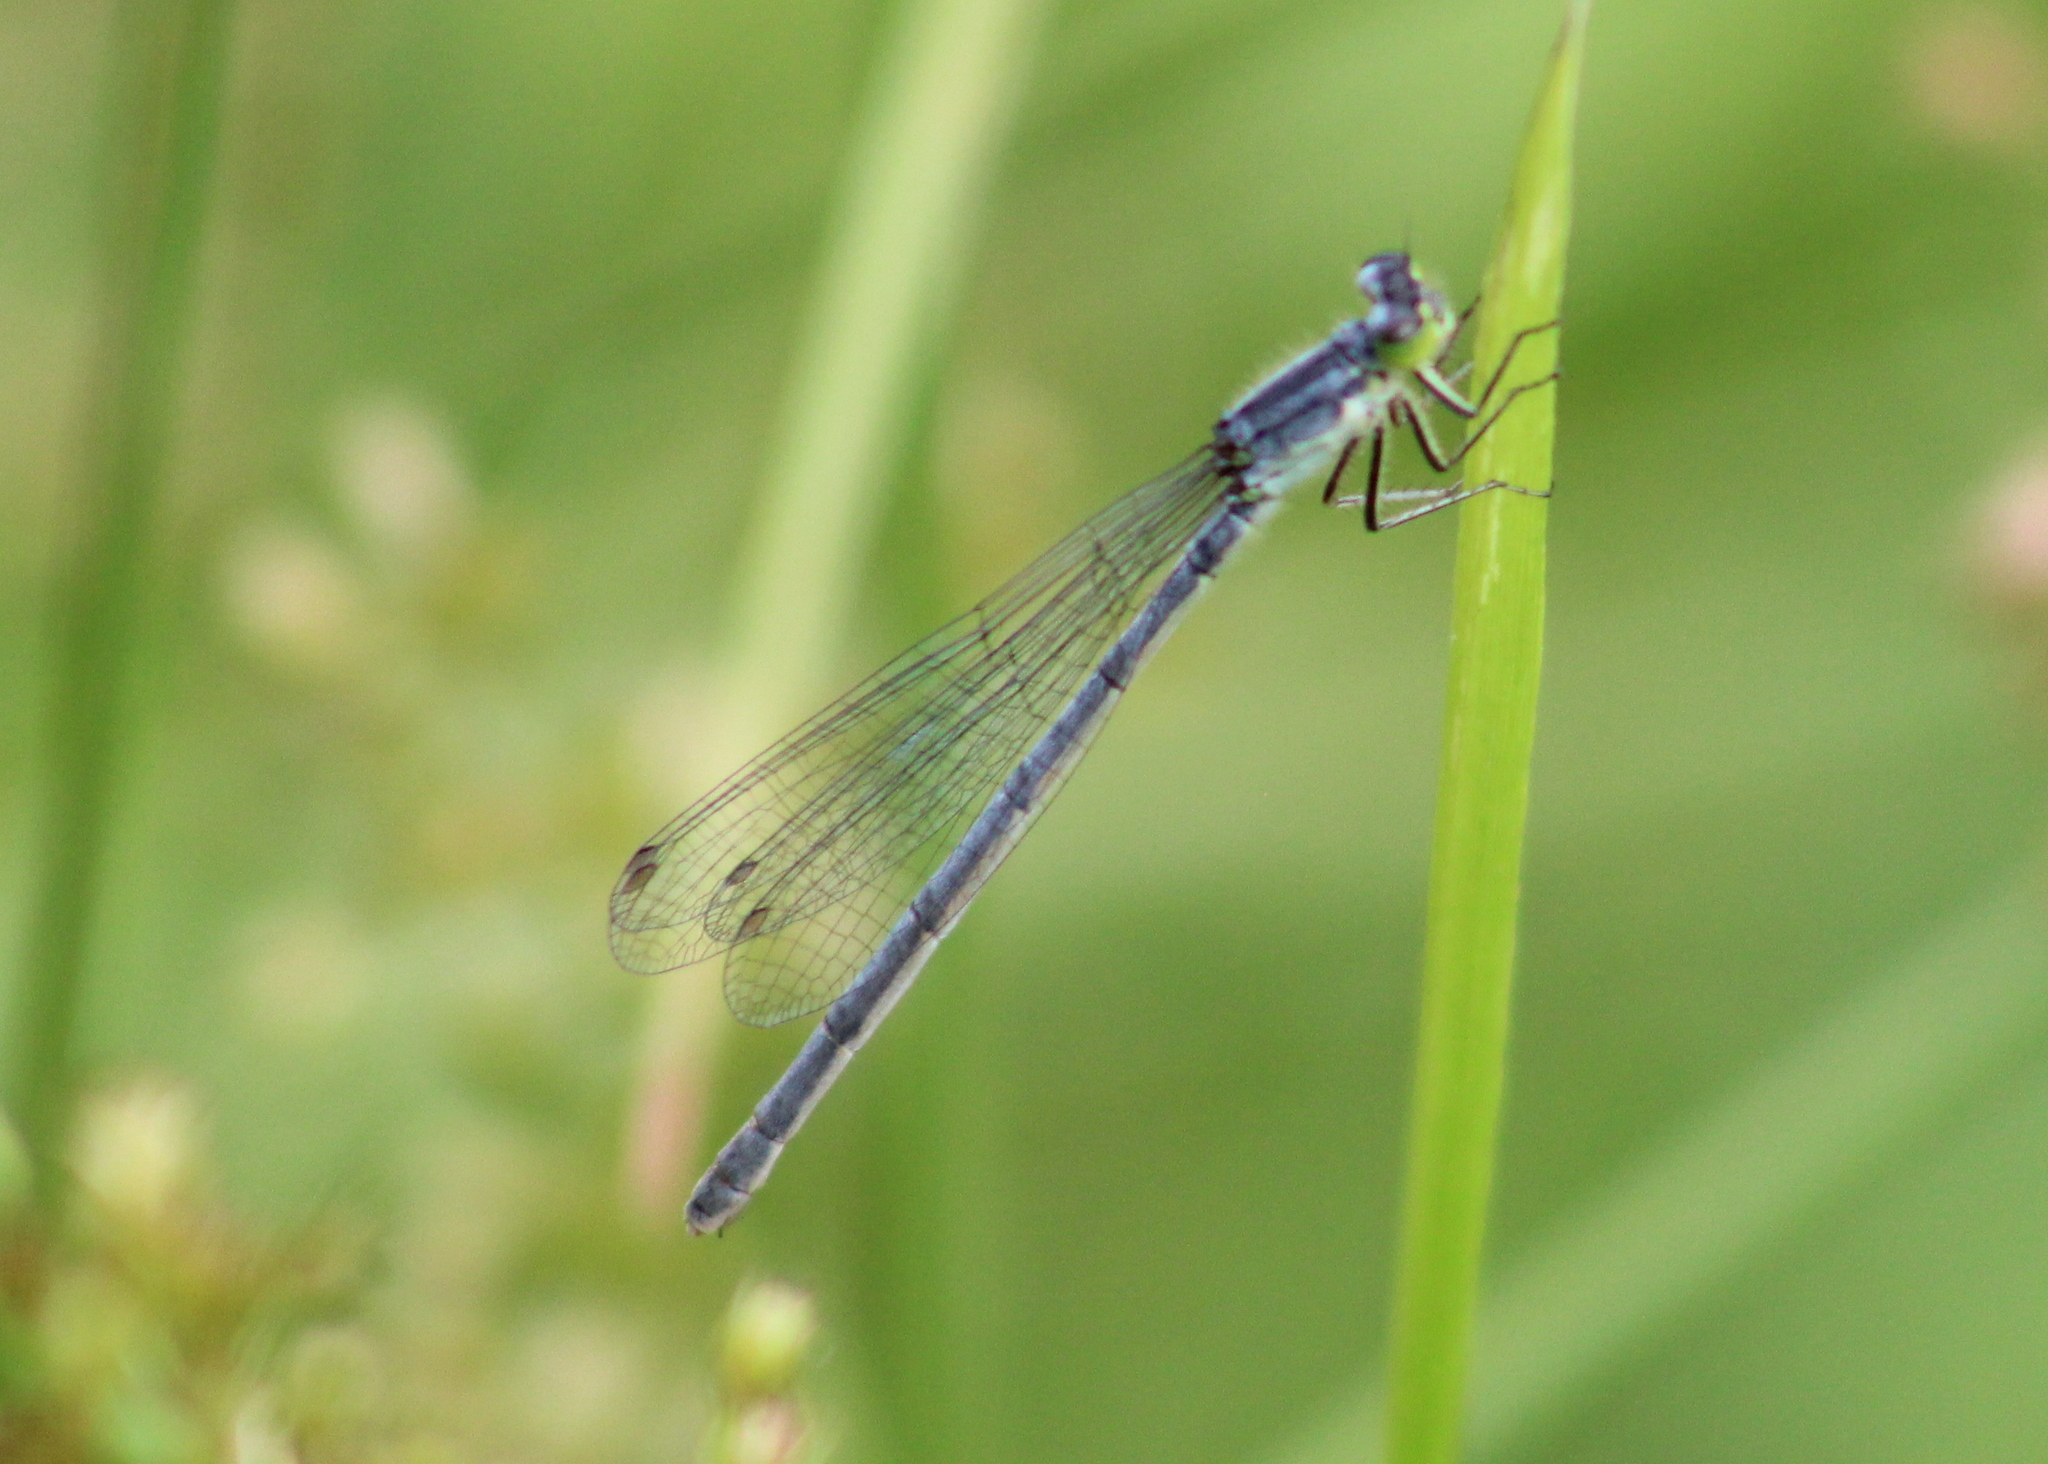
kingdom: Animalia
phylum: Arthropoda
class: Insecta
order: Odonata
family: Coenagrionidae
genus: Ischnura
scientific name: Ischnura verticalis
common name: Eastern forktail
